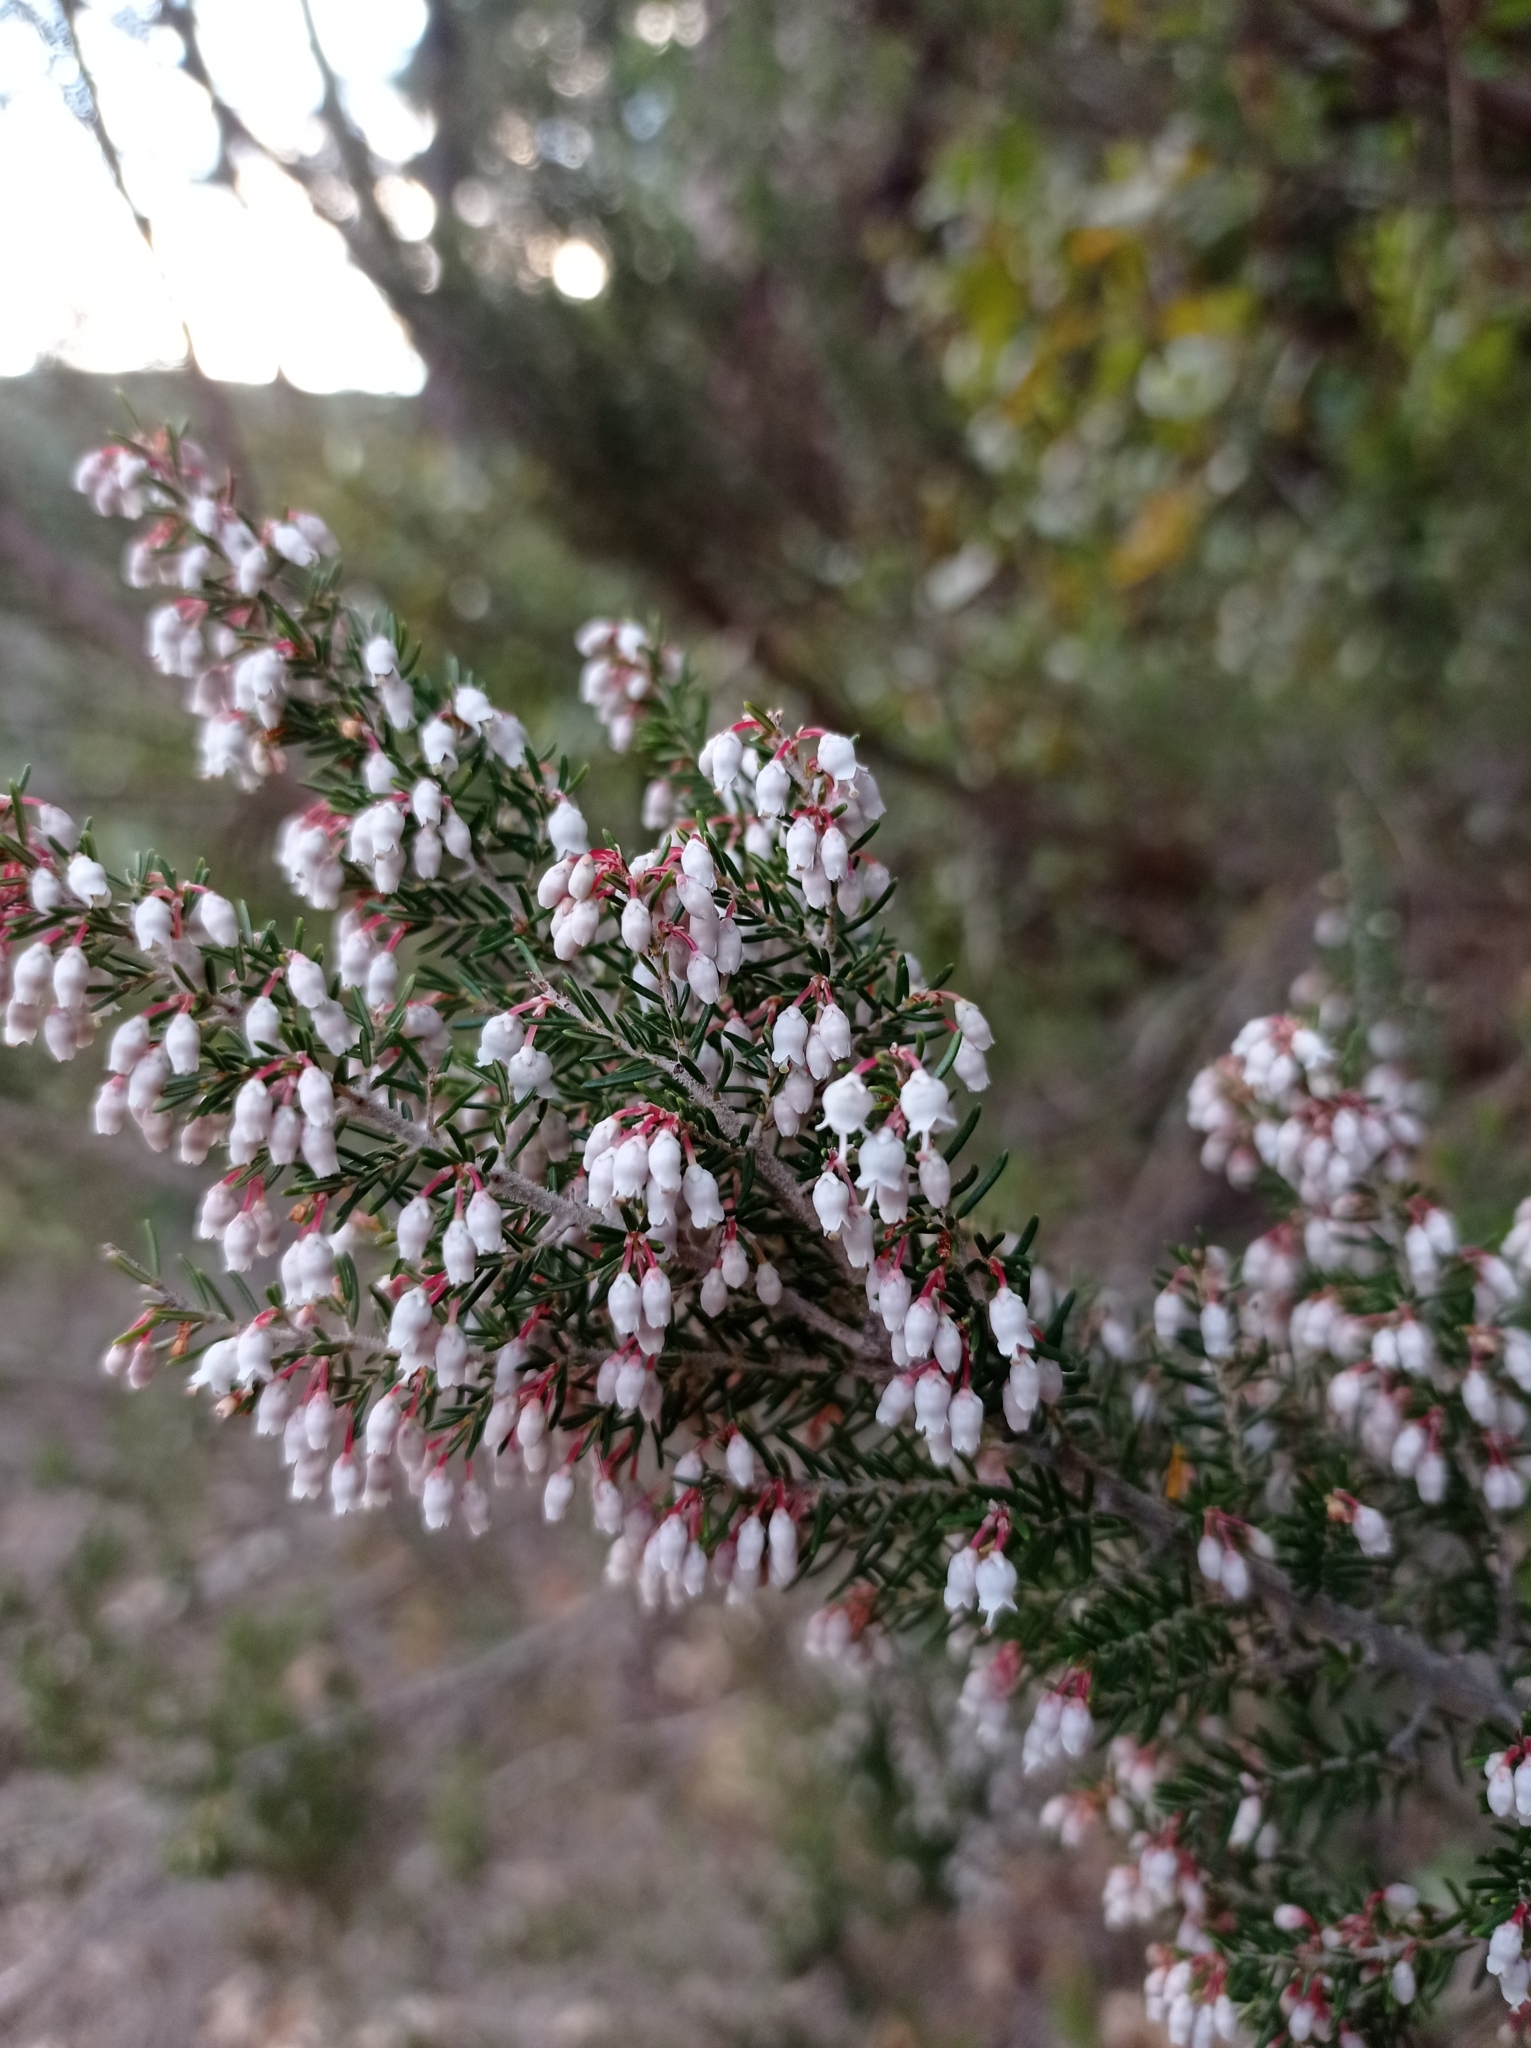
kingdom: Plantae
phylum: Tracheophyta
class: Magnoliopsida
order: Ericales
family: Ericaceae
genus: Erica
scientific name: Erica arborea
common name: Tree heath
